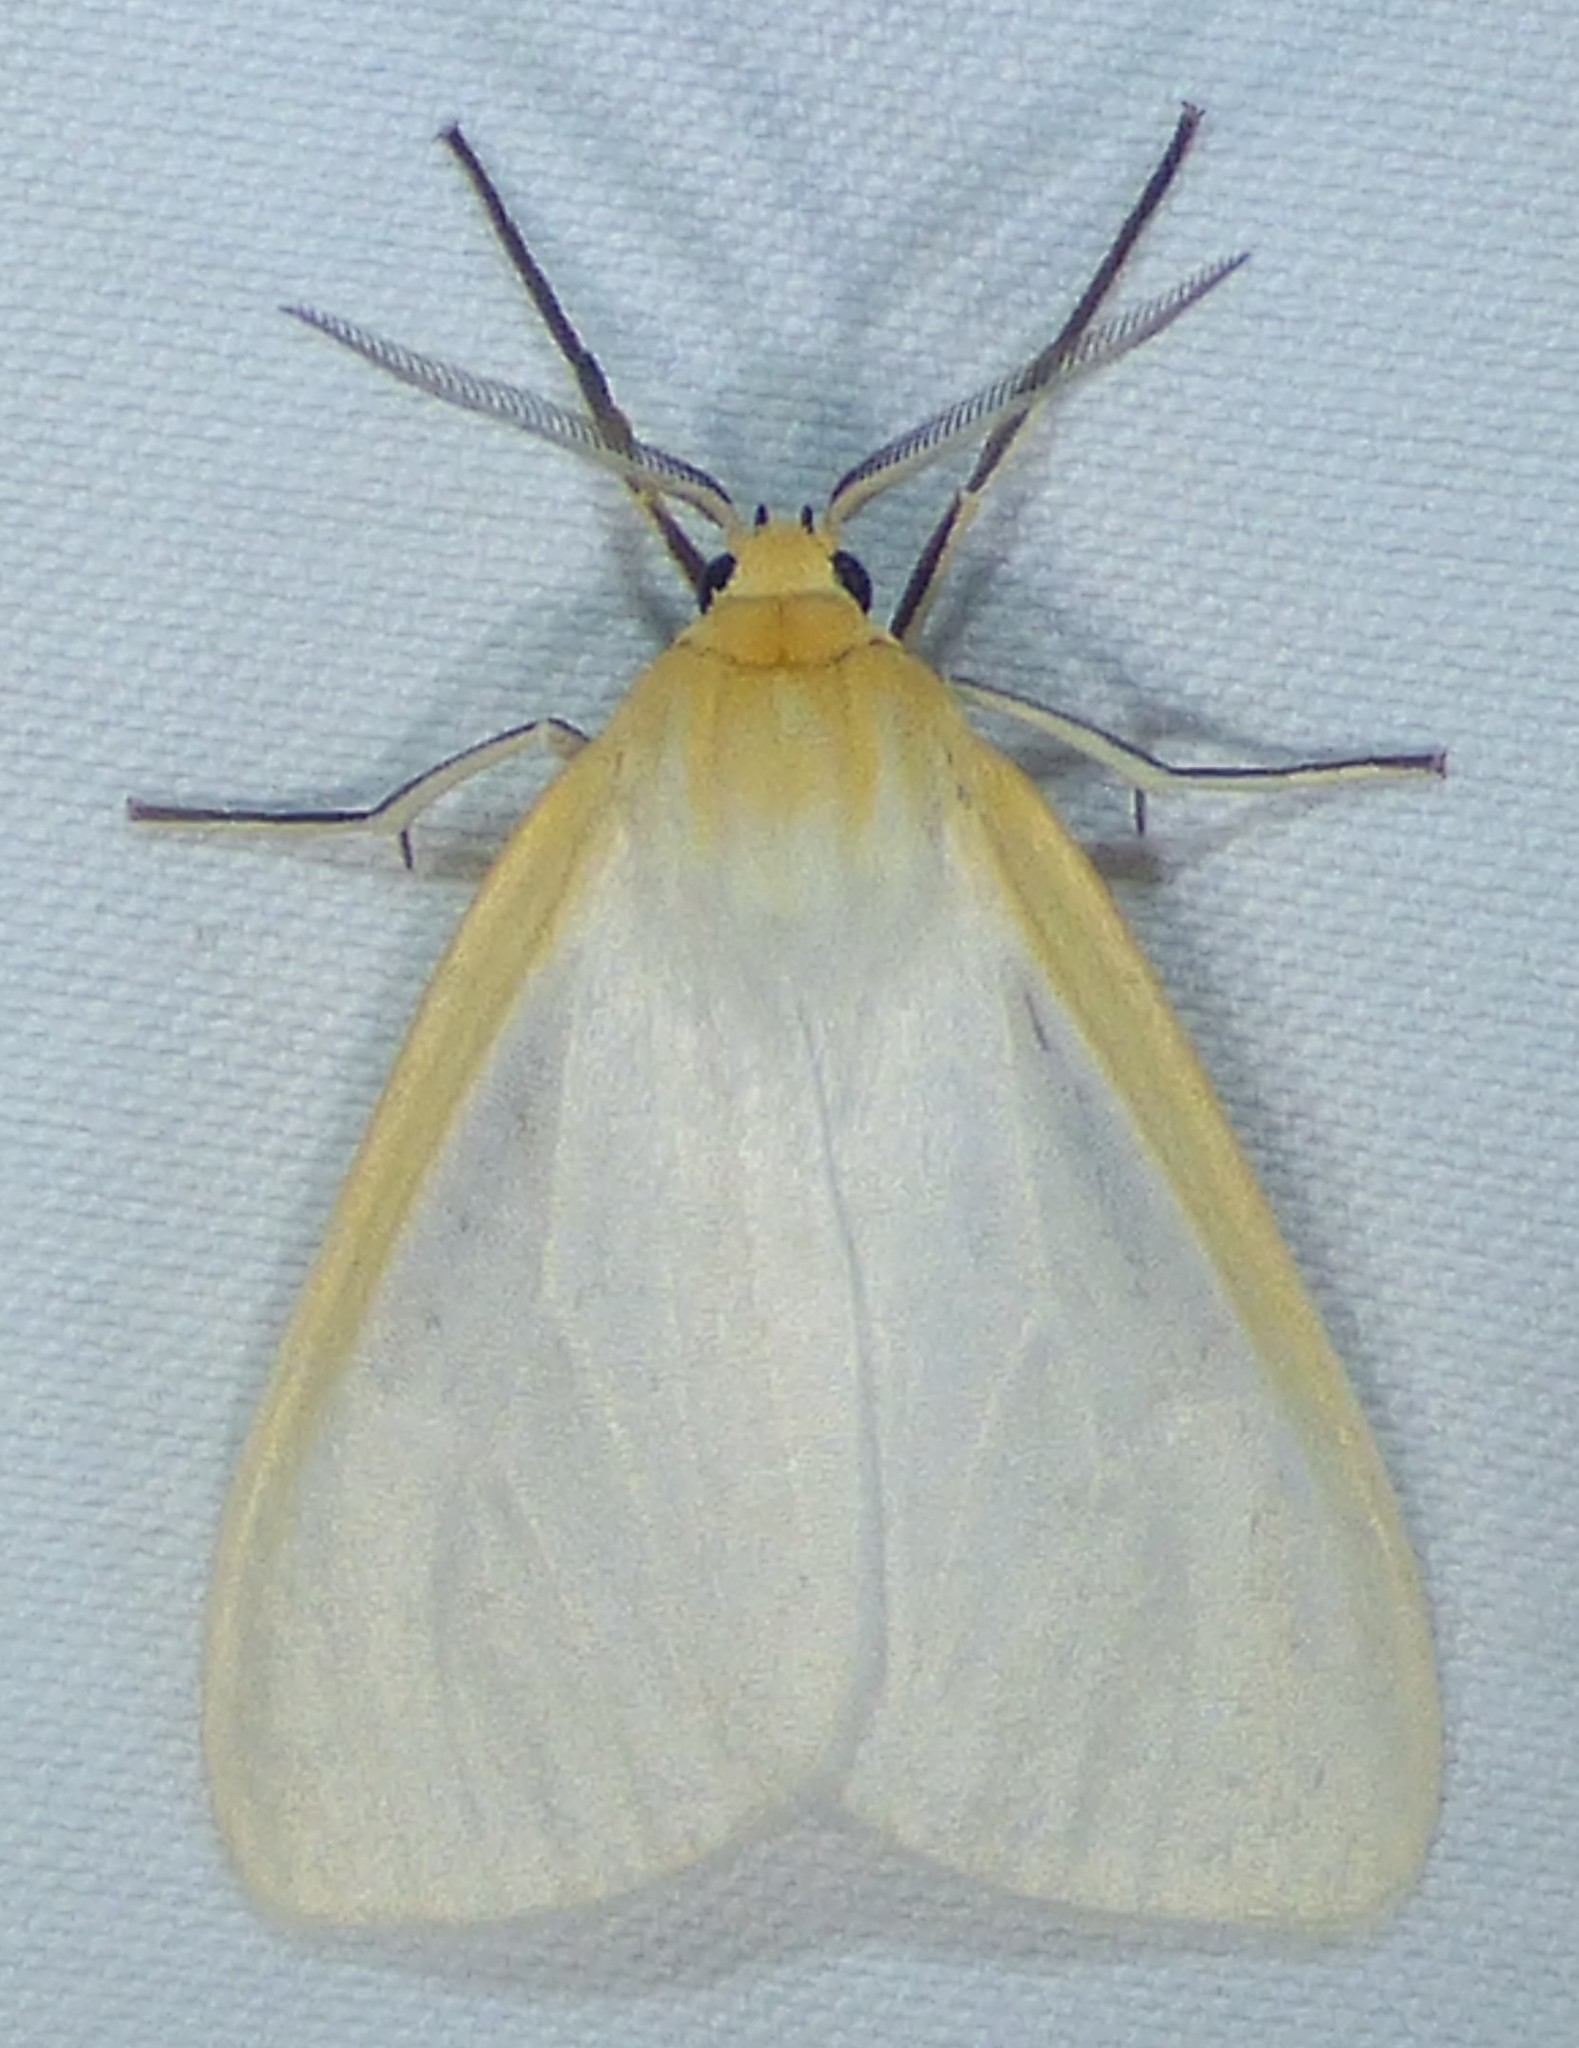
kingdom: Animalia
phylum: Arthropoda
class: Insecta
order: Lepidoptera
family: Erebidae
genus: Cycnia
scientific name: Cycnia tenera
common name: Delicate cycnia moth
